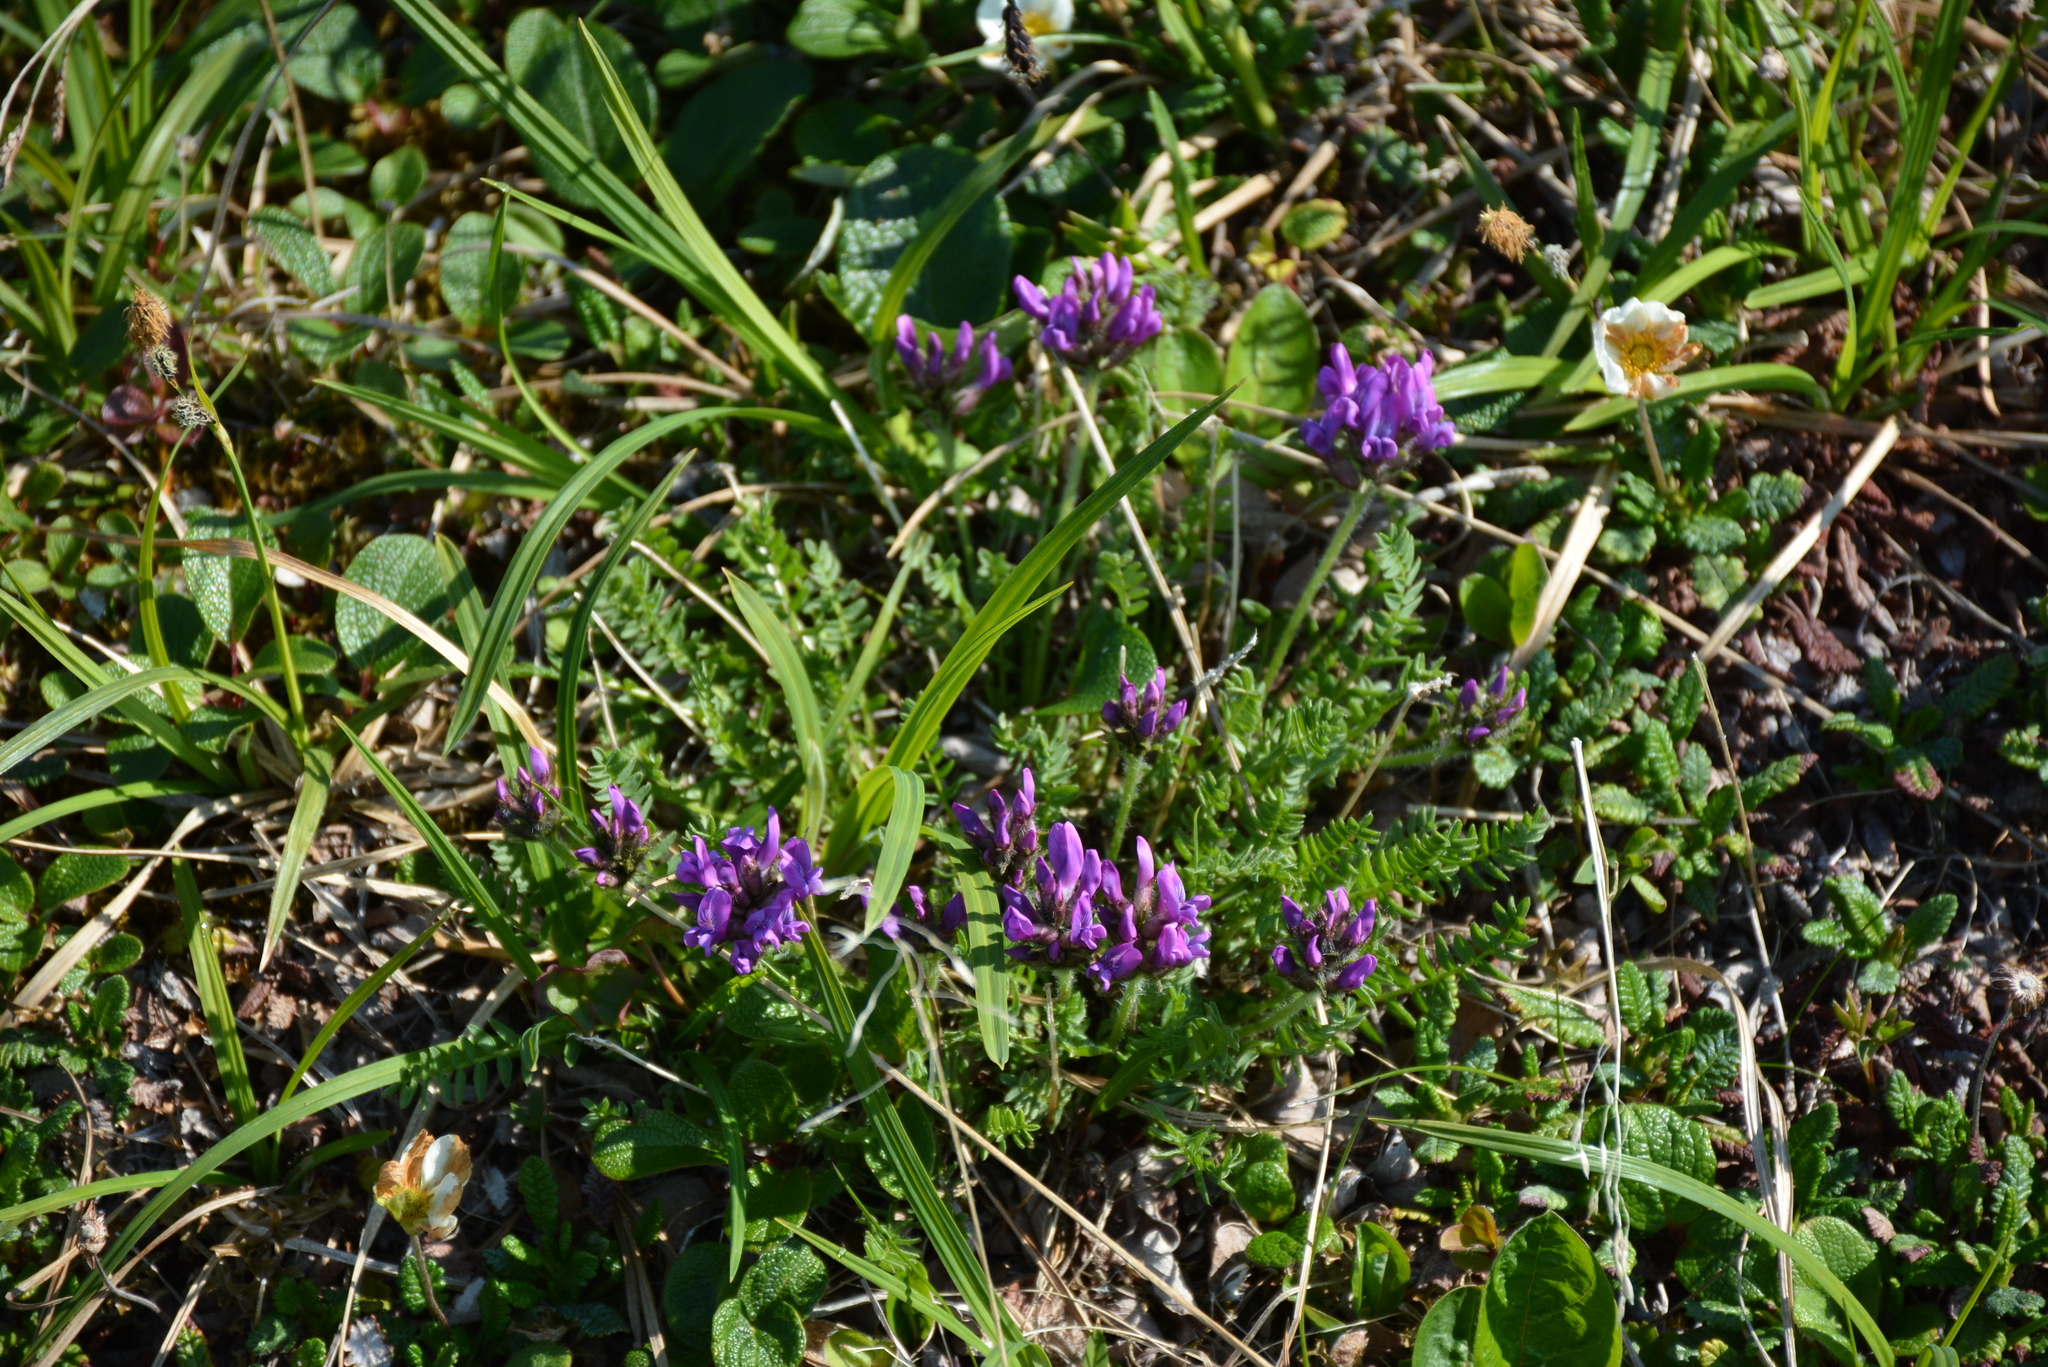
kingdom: Plantae
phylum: Tracheophyta
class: Magnoliopsida
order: Fabales
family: Fabaceae
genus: Oxytropis
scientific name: Oxytropis borealis
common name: Boreal locoweed
